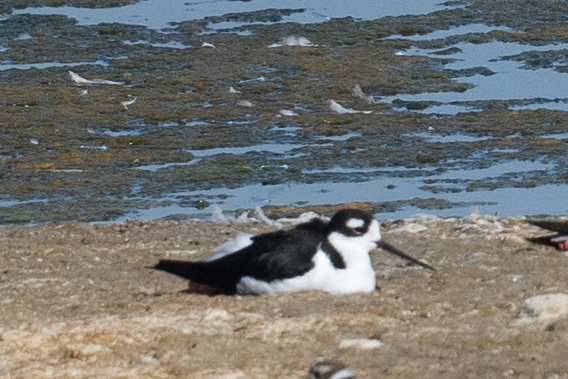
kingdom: Animalia
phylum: Chordata
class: Aves
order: Charadriiformes
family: Recurvirostridae
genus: Himantopus
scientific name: Himantopus mexicanus
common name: Black-necked stilt
